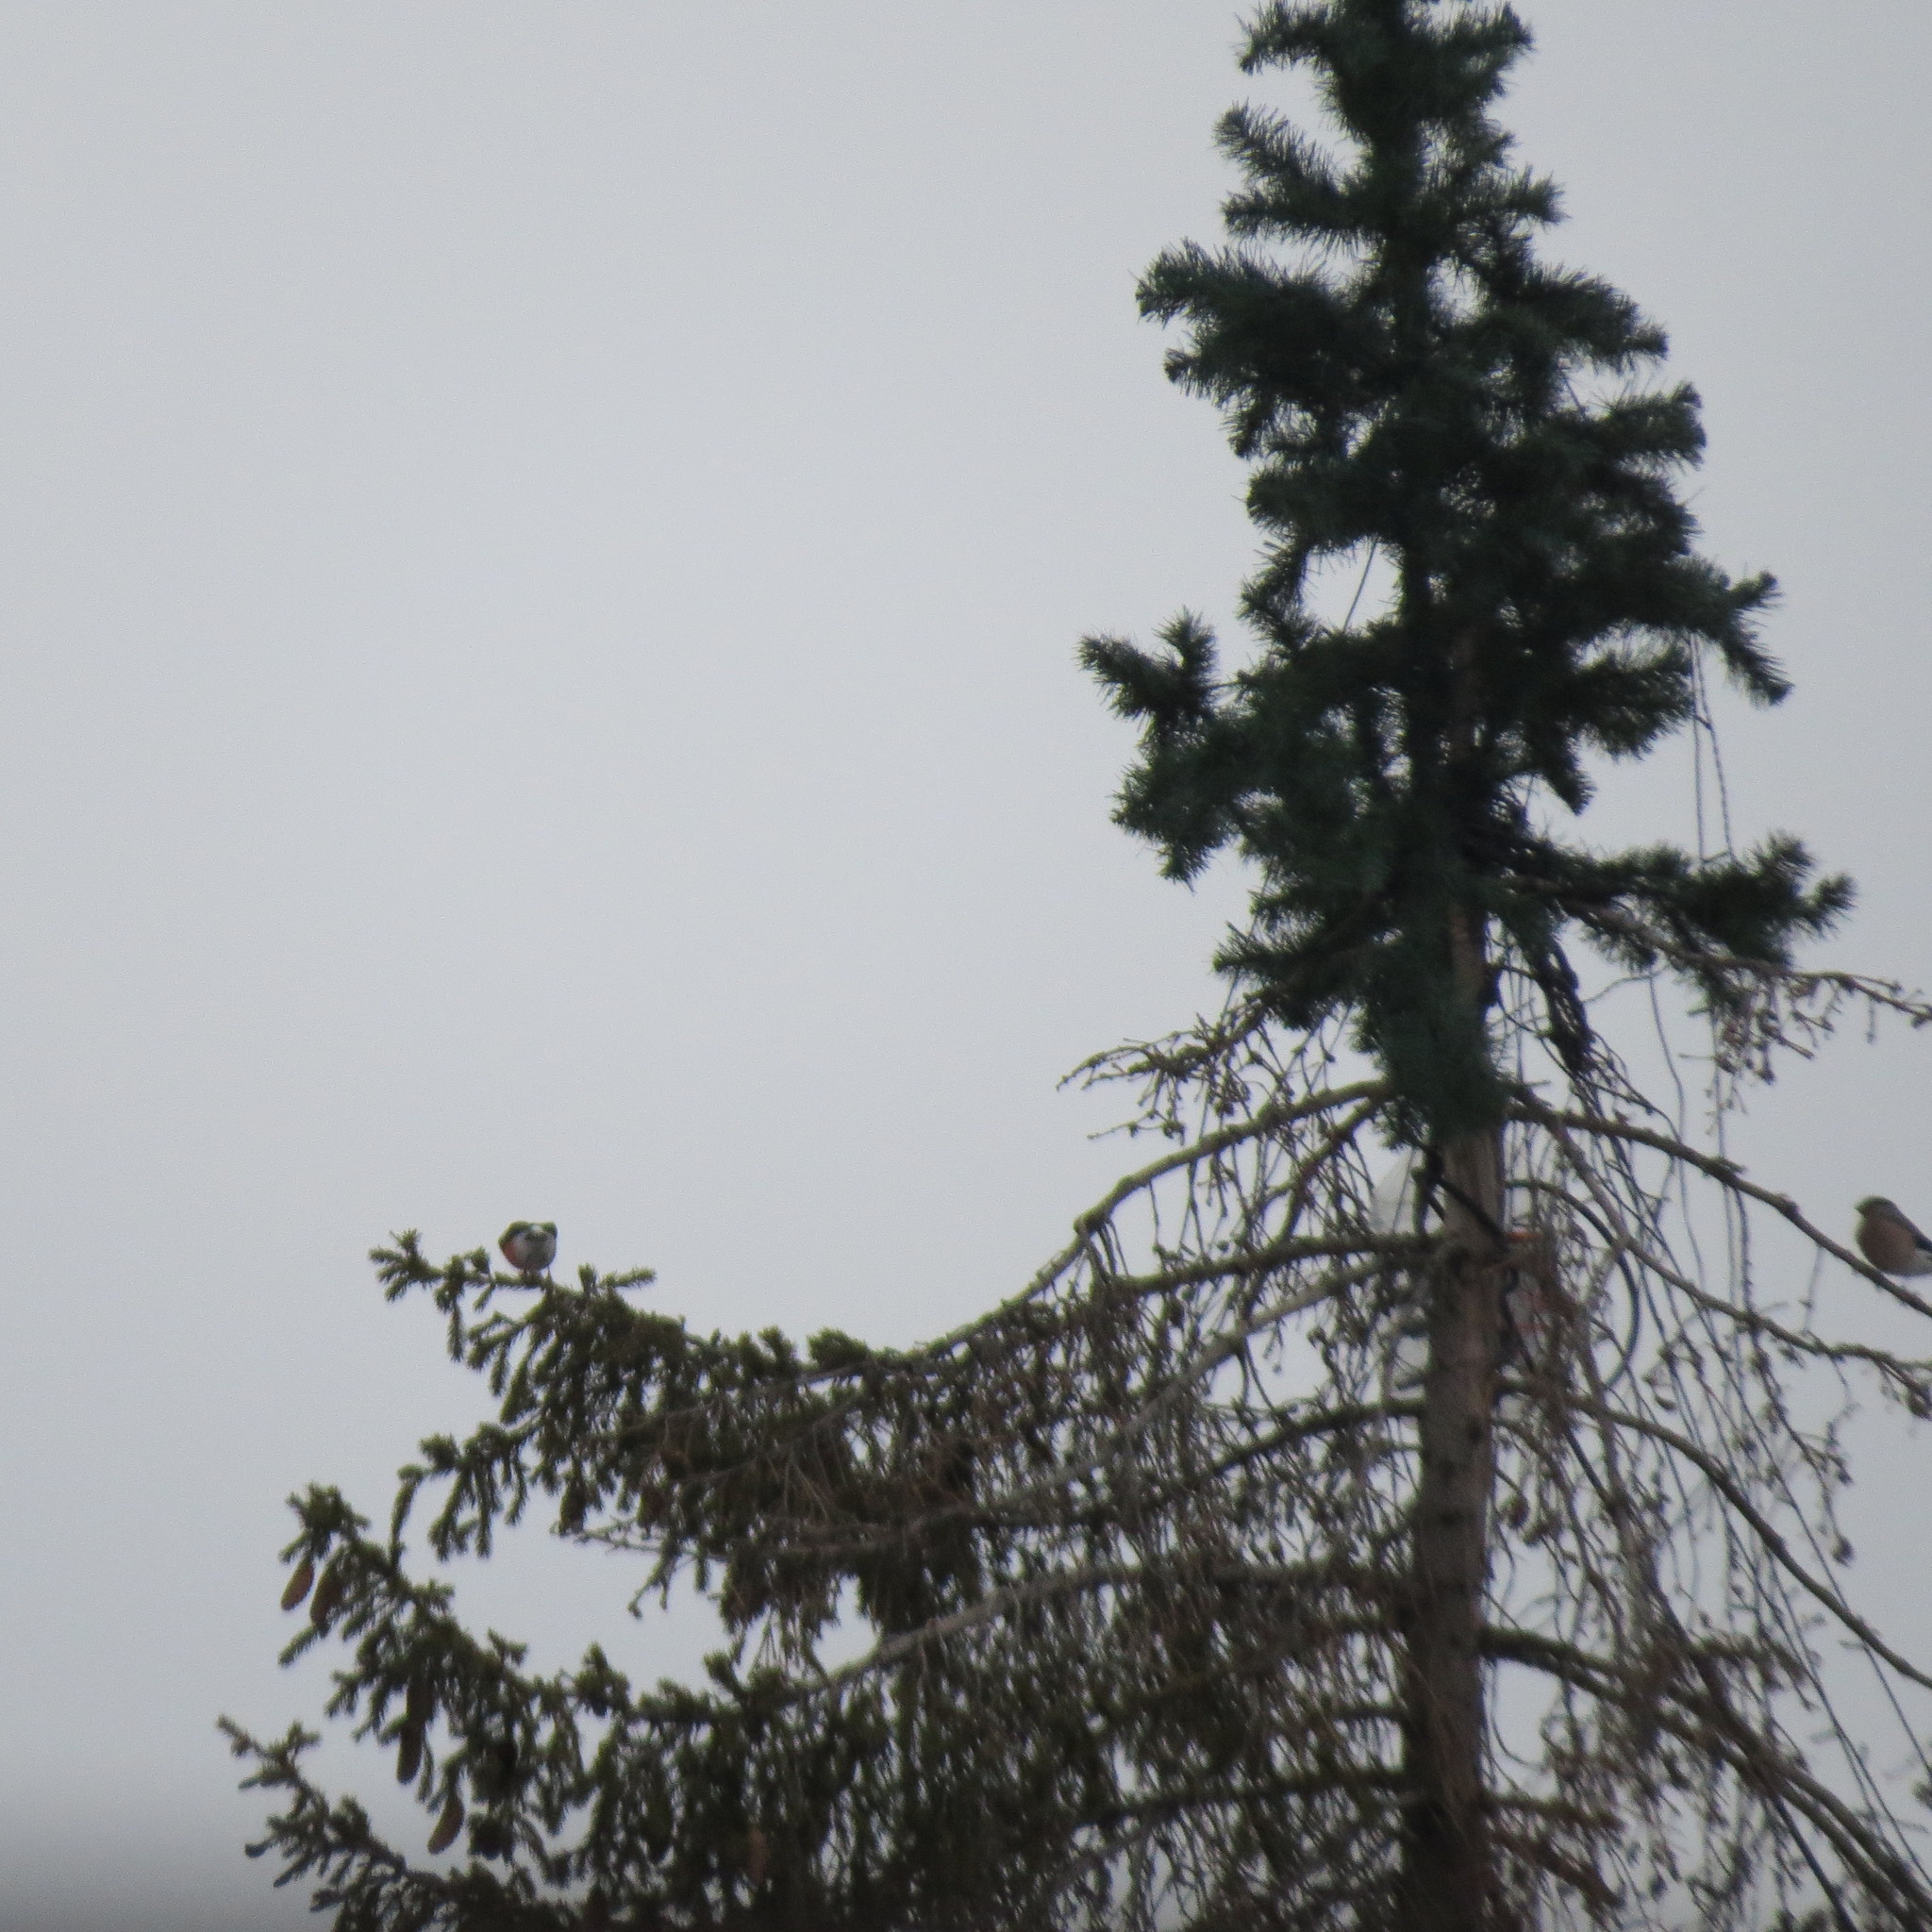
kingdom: Animalia
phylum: Chordata
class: Aves
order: Passeriformes
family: Fringillidae
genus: Pyrrhula
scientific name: Pyrrhula pyrrhula
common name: Eurasian bullfinch
